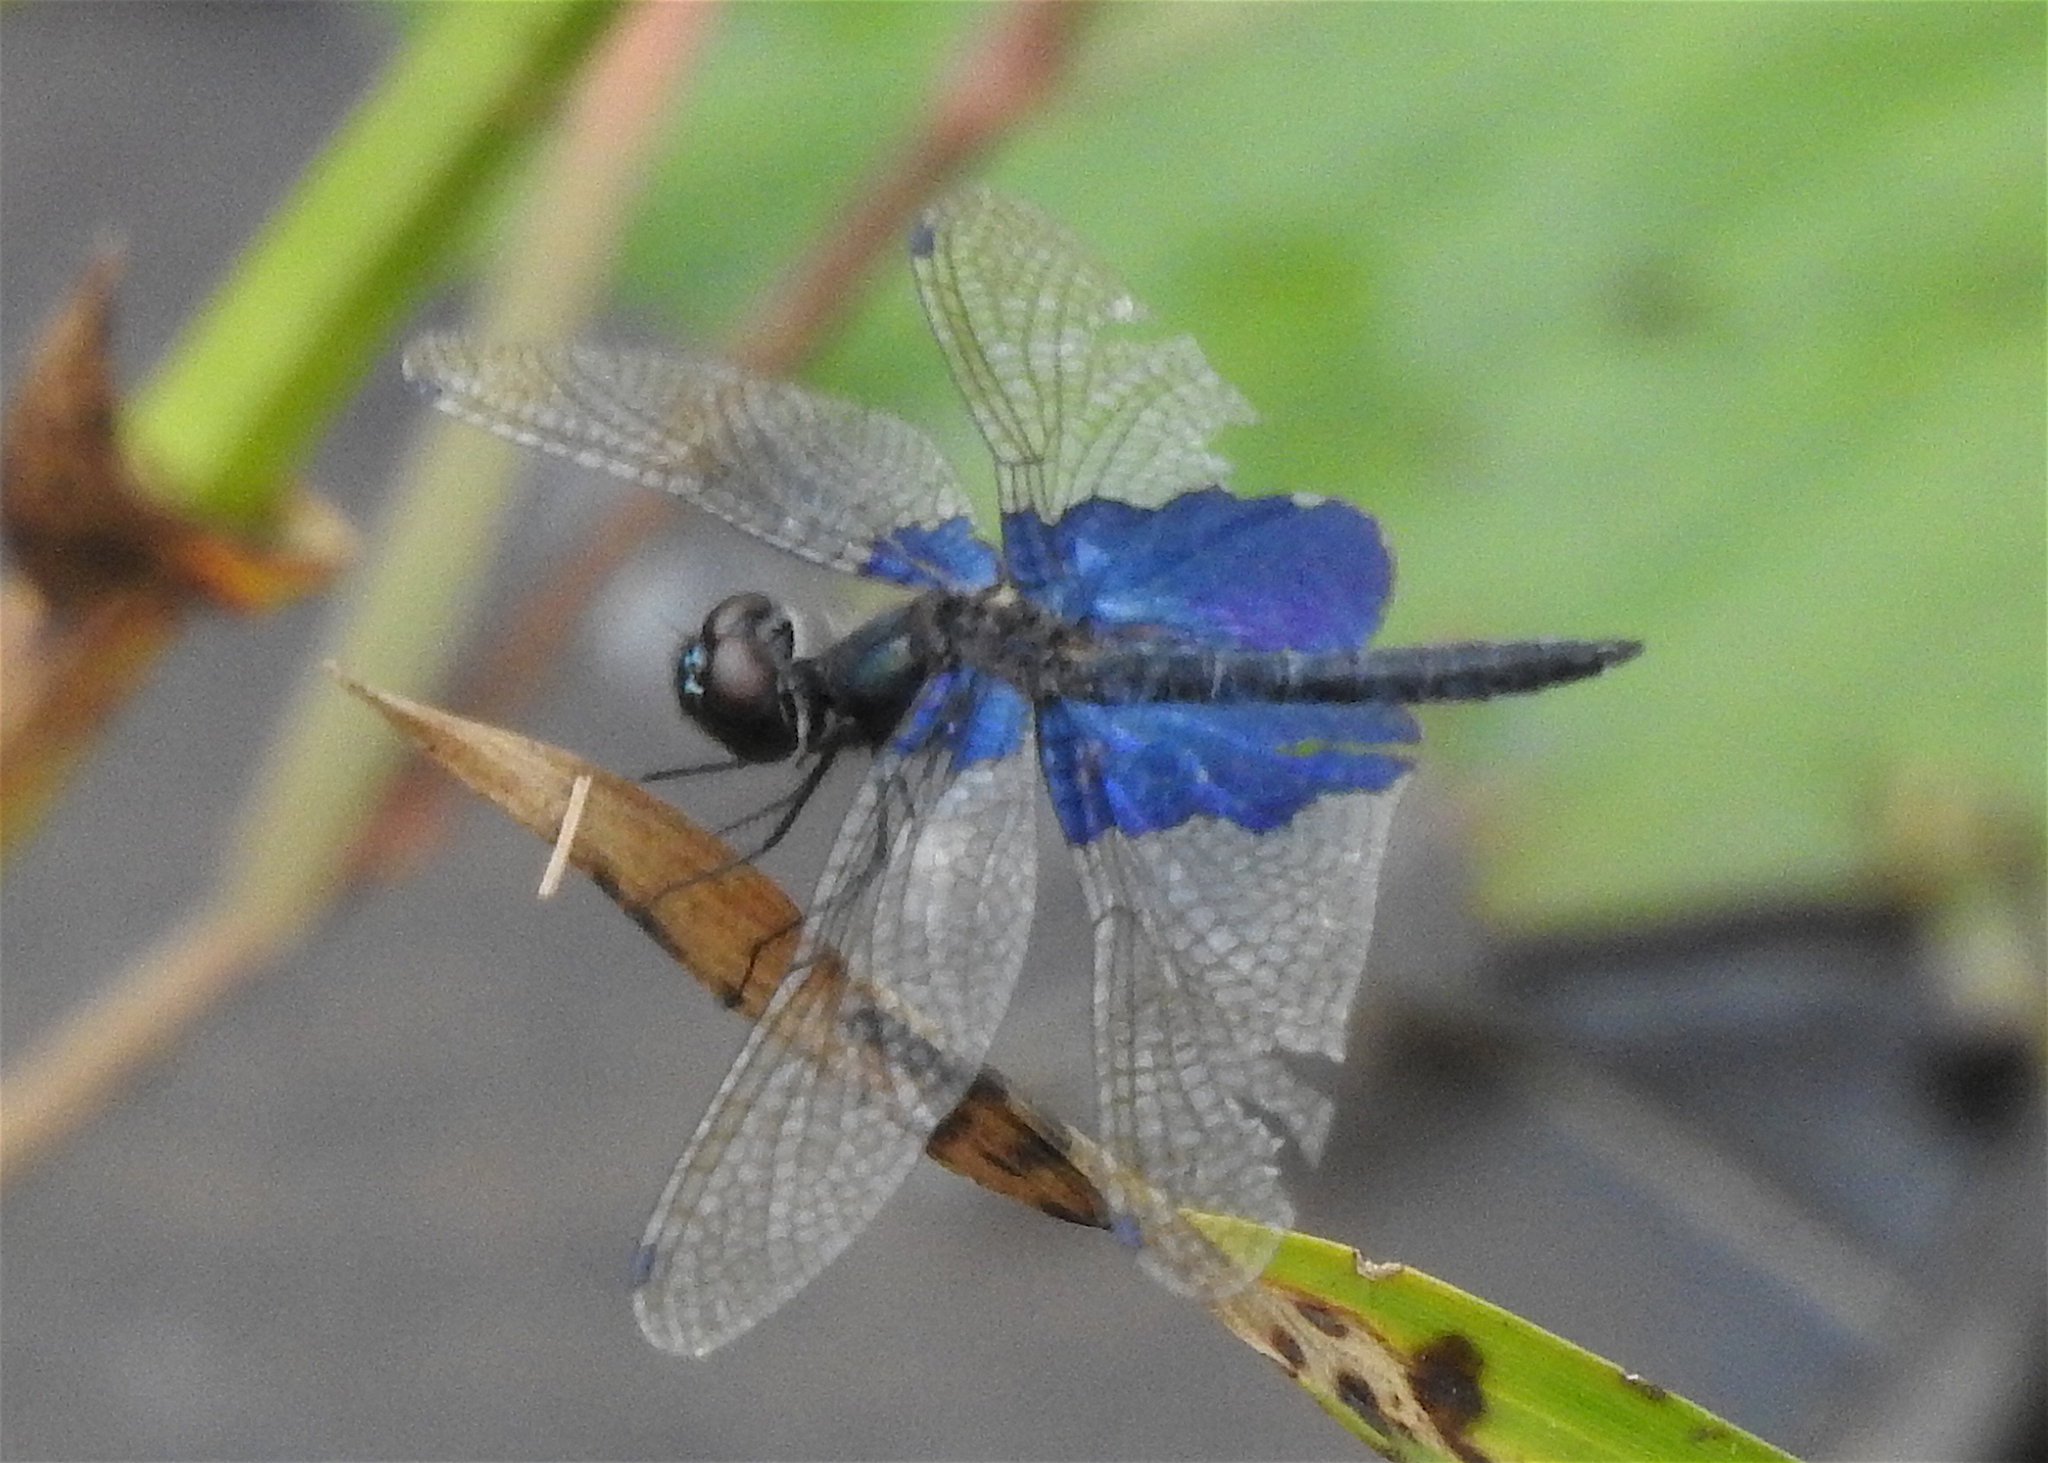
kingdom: Animalia
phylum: Arthropoda
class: Insecta
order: Odonata
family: Libellulidae
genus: Rhyothemis
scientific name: Rhyothemis triangularis
